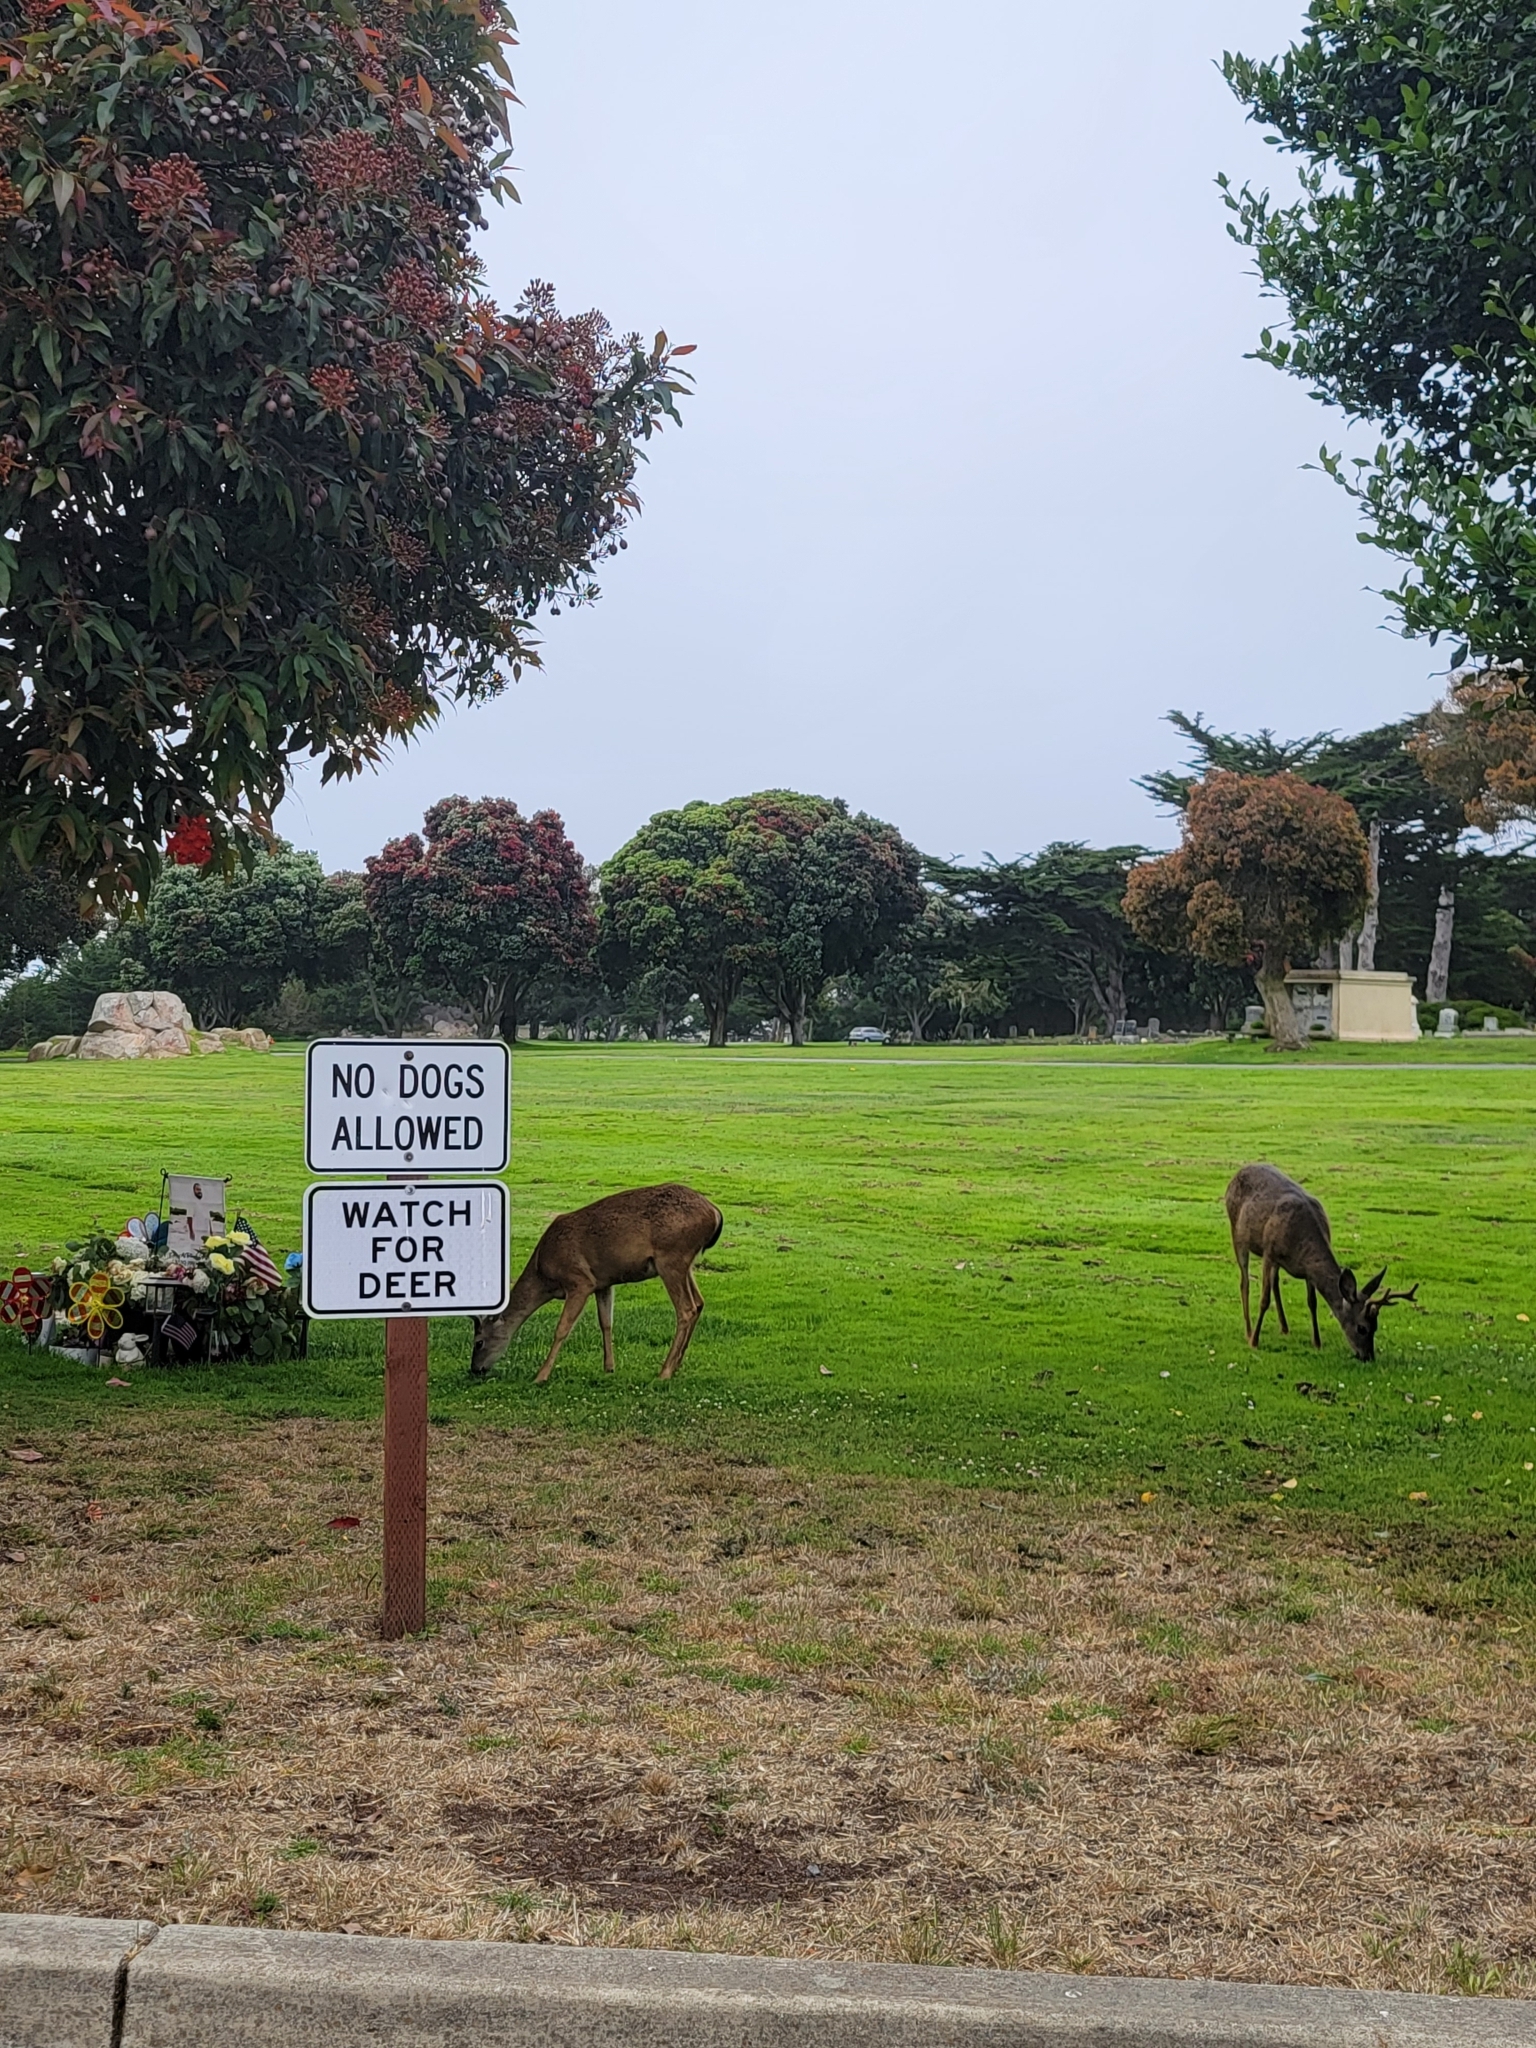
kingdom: Animalia
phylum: Chordata
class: Mammalia
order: Artiodactyla
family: Cervidae
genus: Odocoileus
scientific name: Odocoileus hemionus
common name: Mule deer
